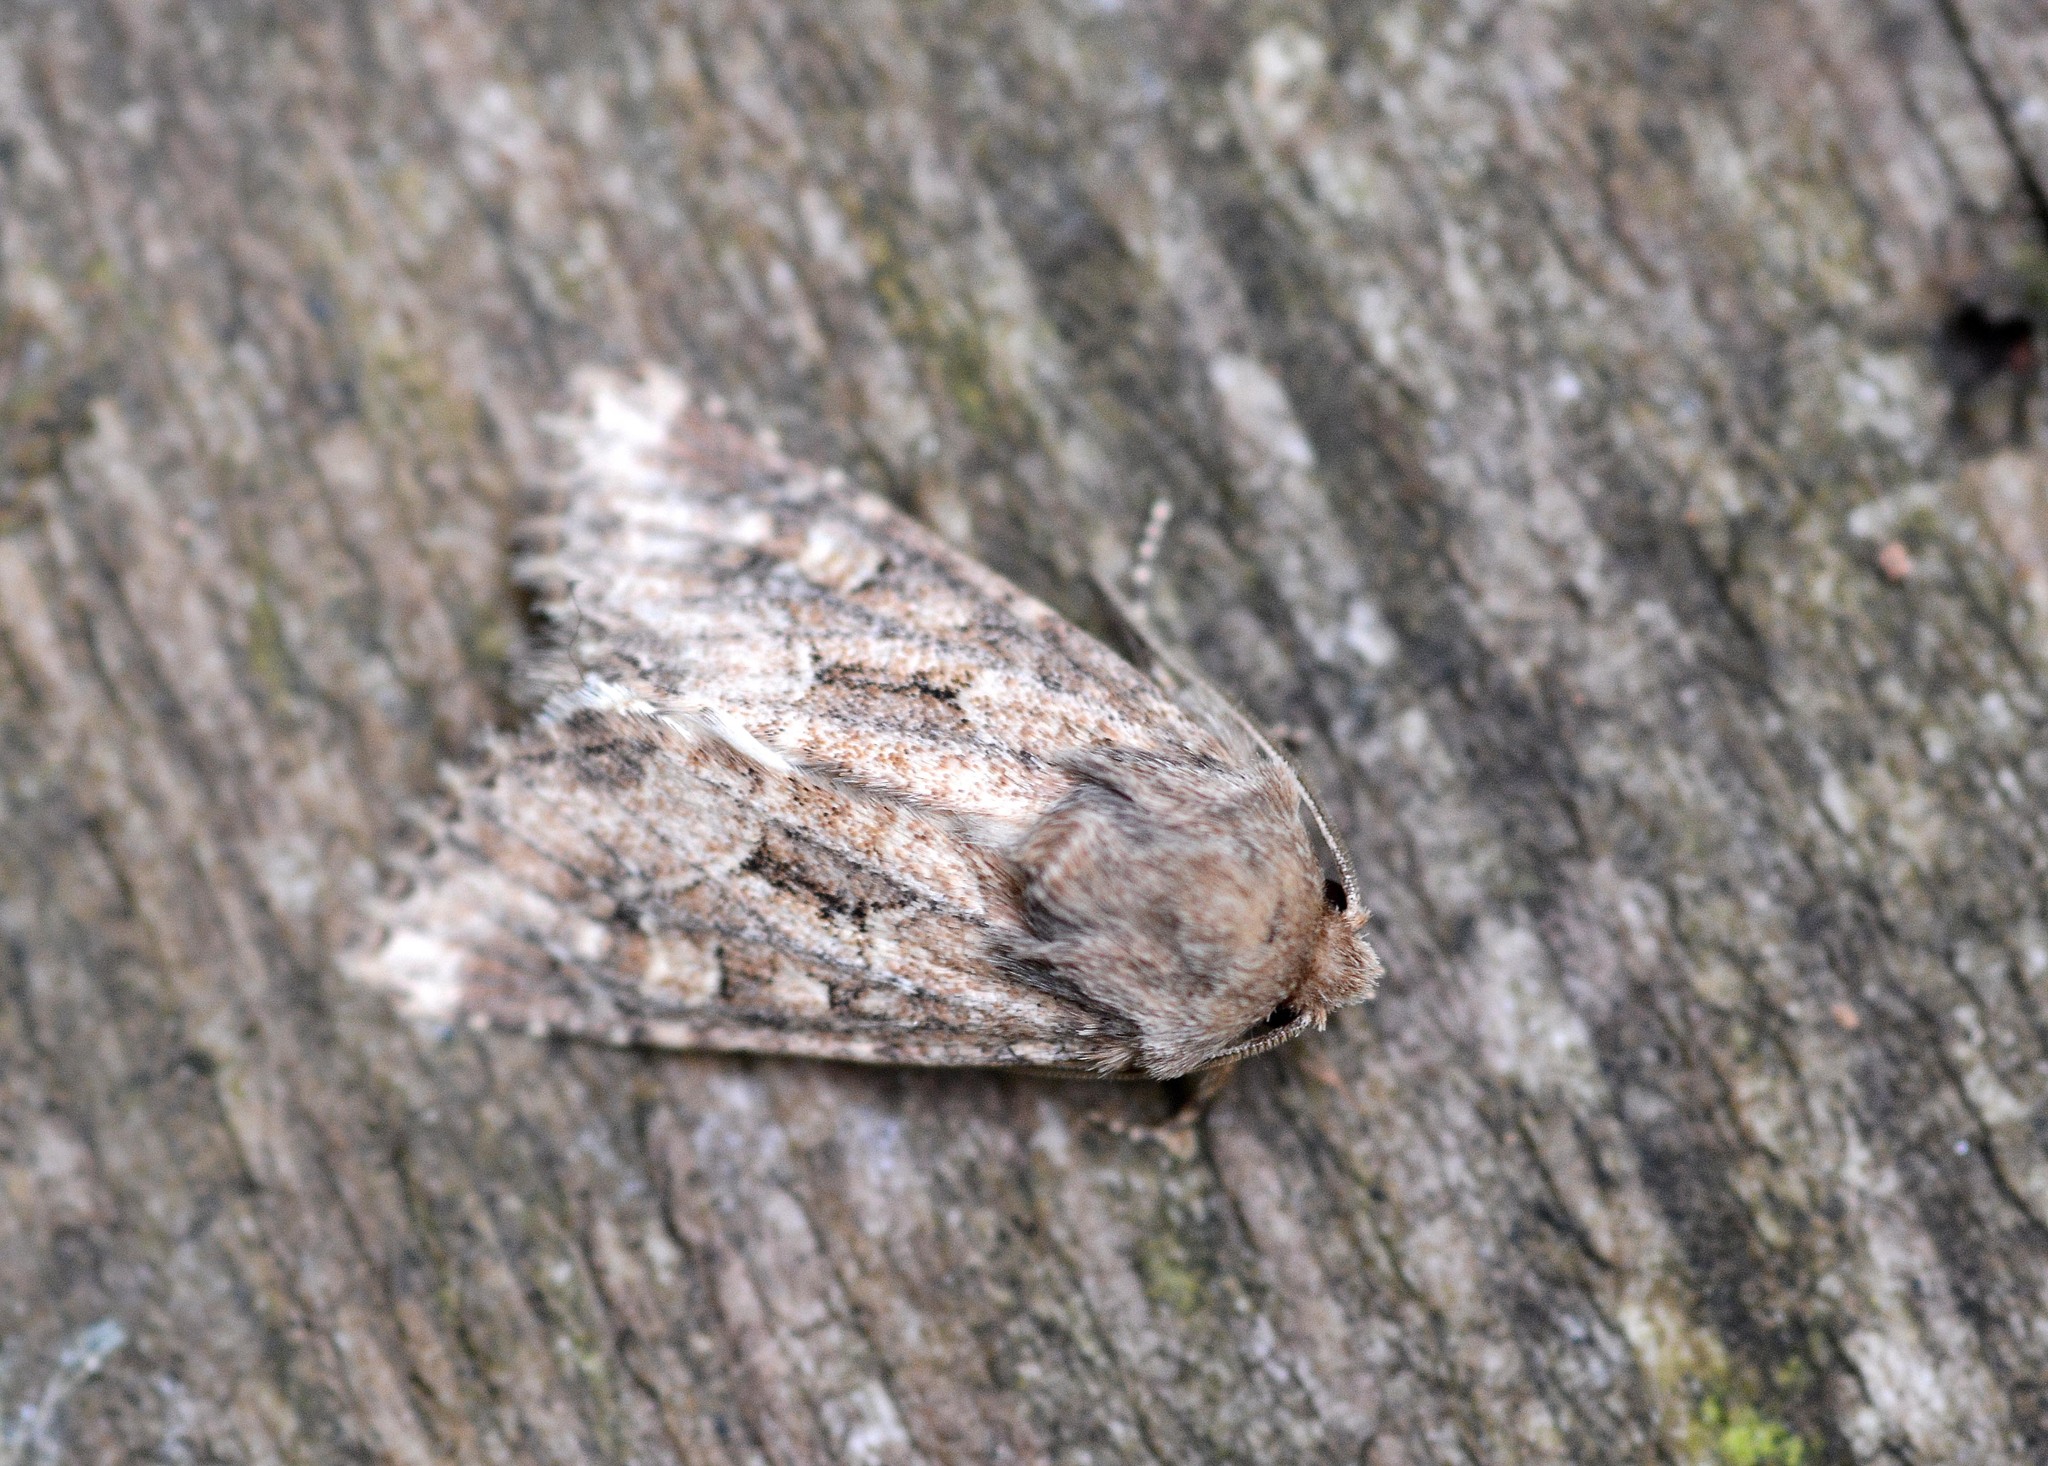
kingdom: Animalia
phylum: Arthropoda
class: Insecta
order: Lepidoptera
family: Noctuidae
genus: Luperina
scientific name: Luperina testacea
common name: Flounced rustic
